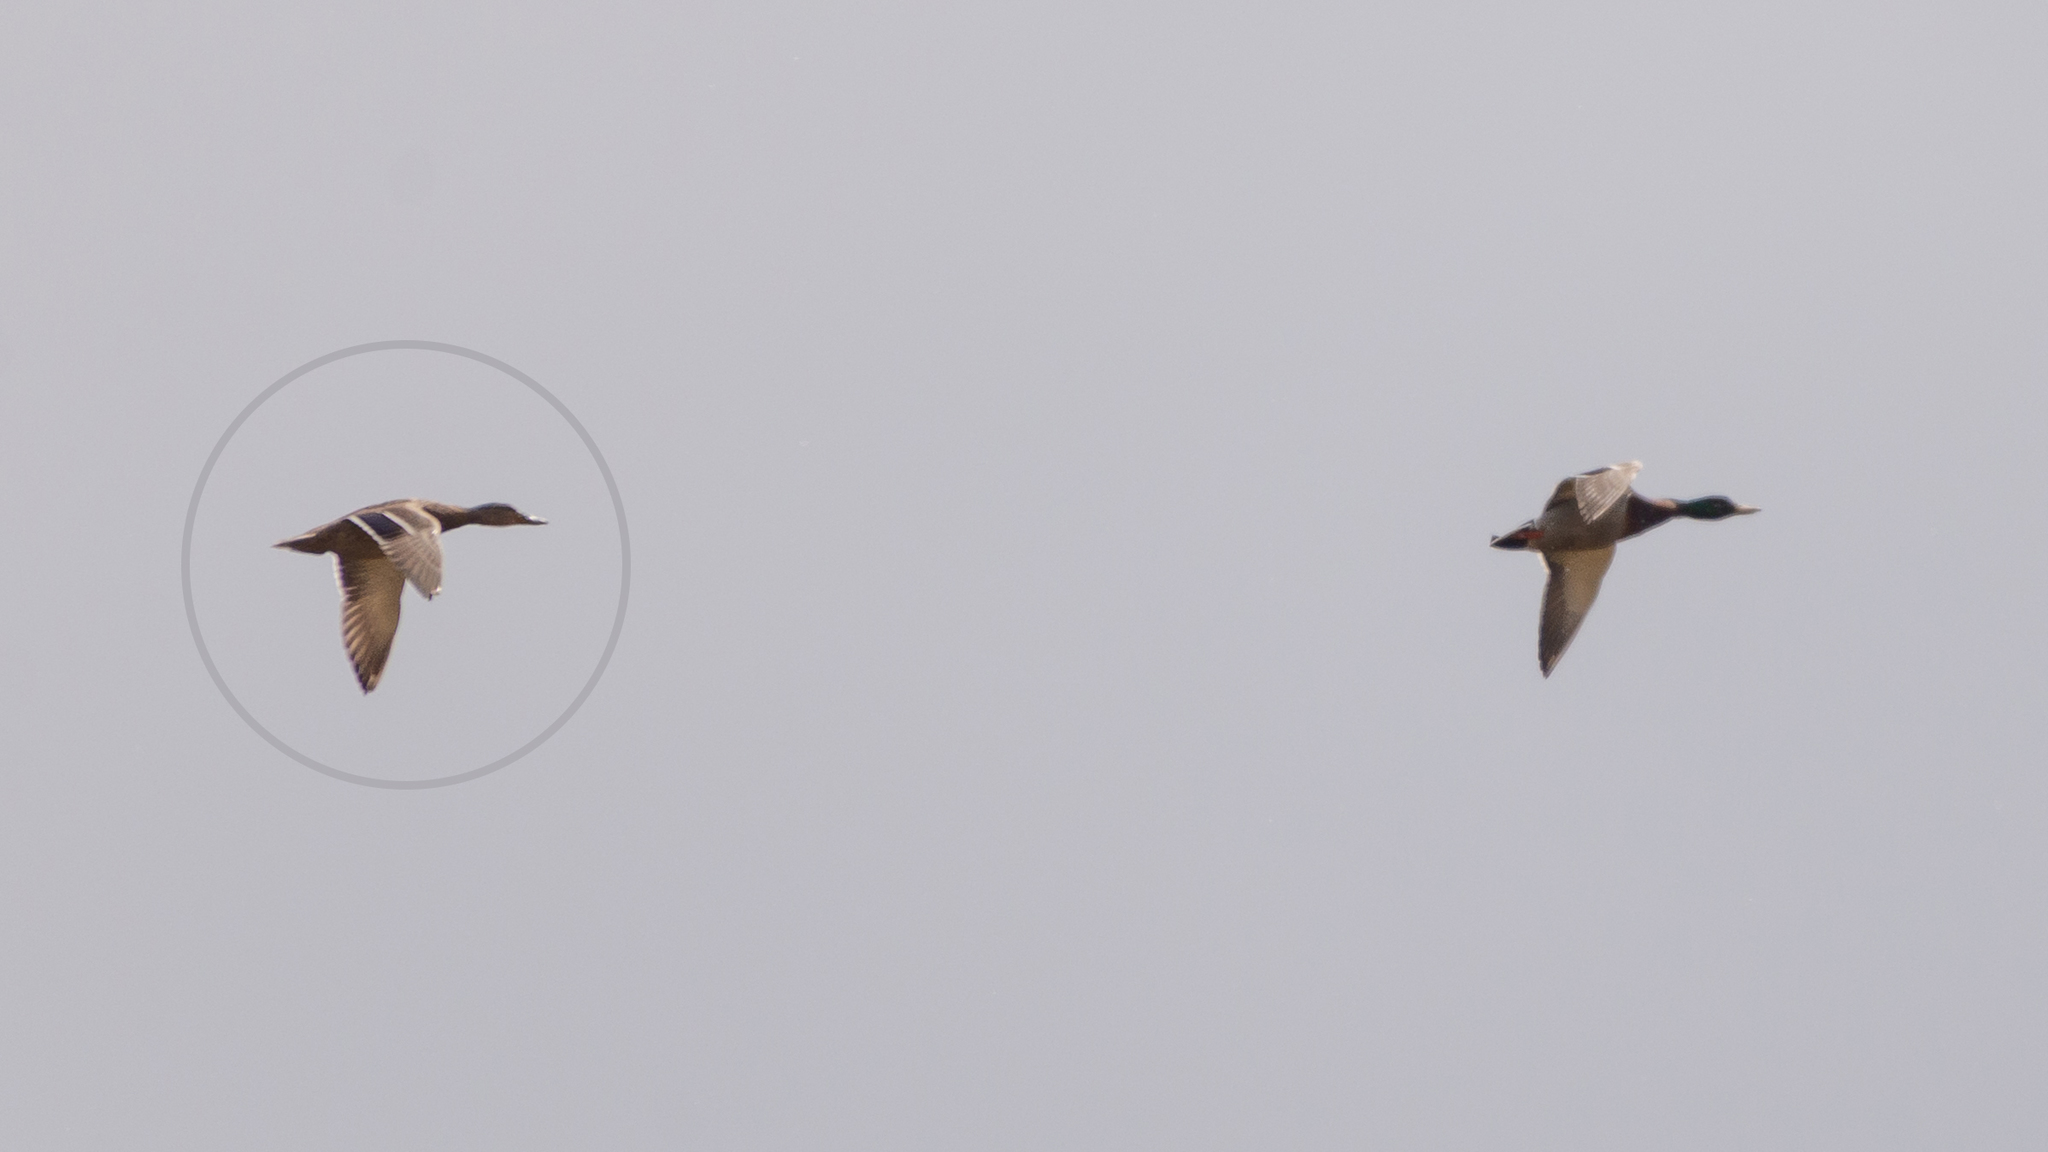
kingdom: Animalia
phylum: Chordata
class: Aves
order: Anseriformes
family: Anatidae
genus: Anas
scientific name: Anas platyrhynchos
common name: Mallard
